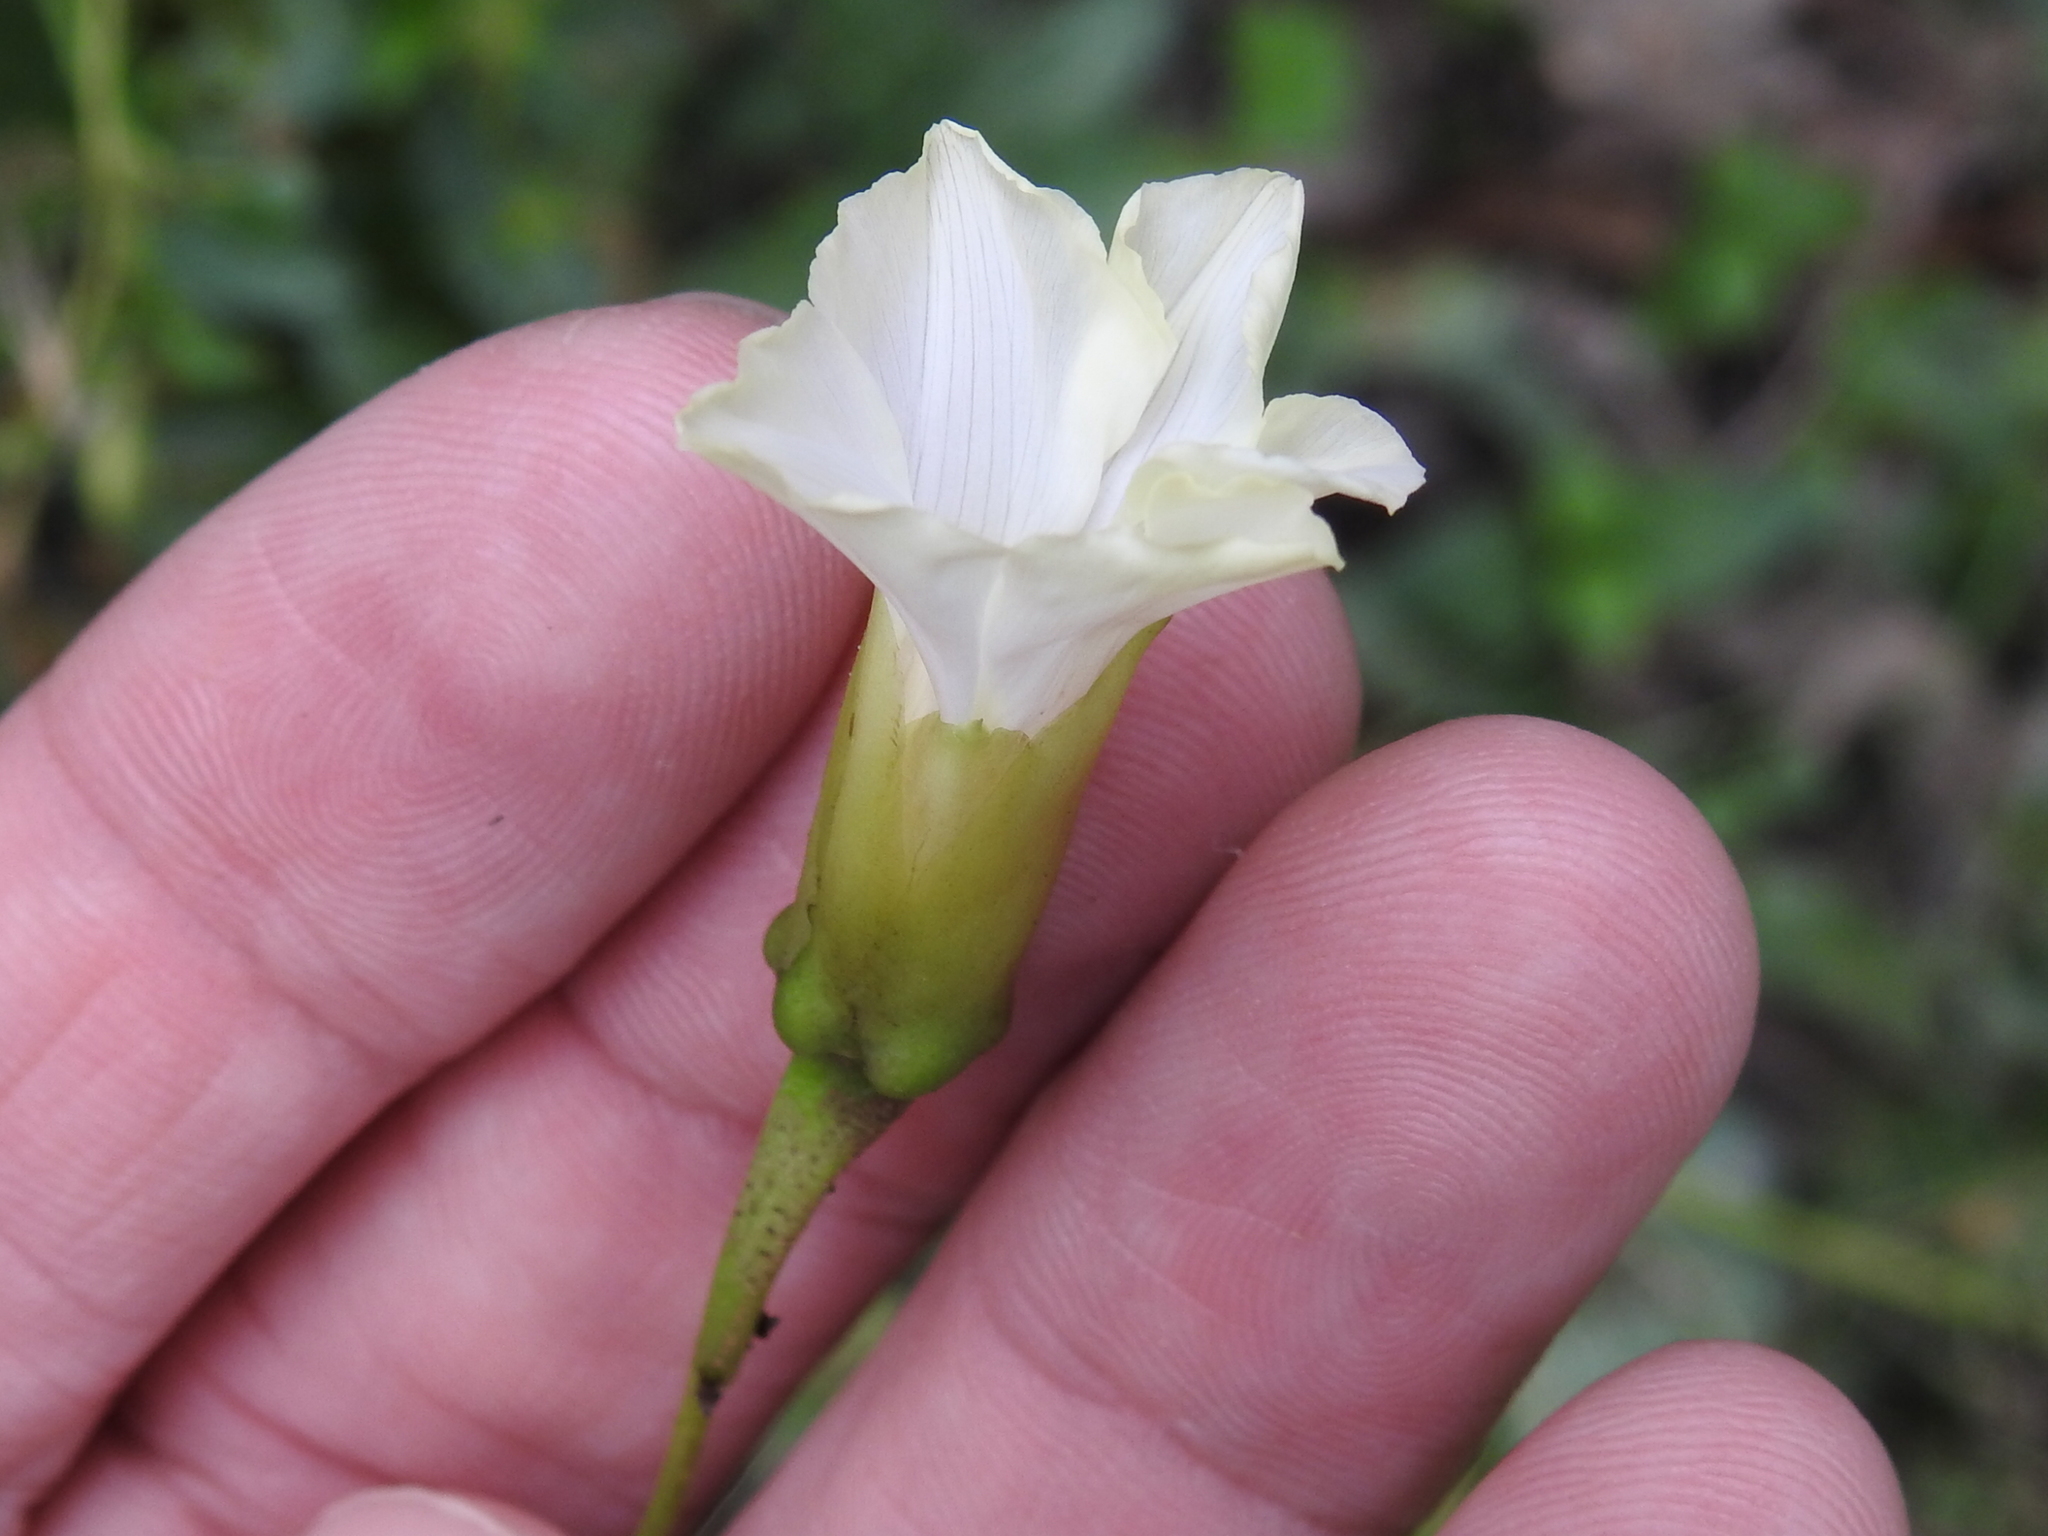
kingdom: Plantae
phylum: Tracheophyta
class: Magnoliopsida
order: Solanales
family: Convolvulaceae
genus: Distimake
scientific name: Distimake dissectus
